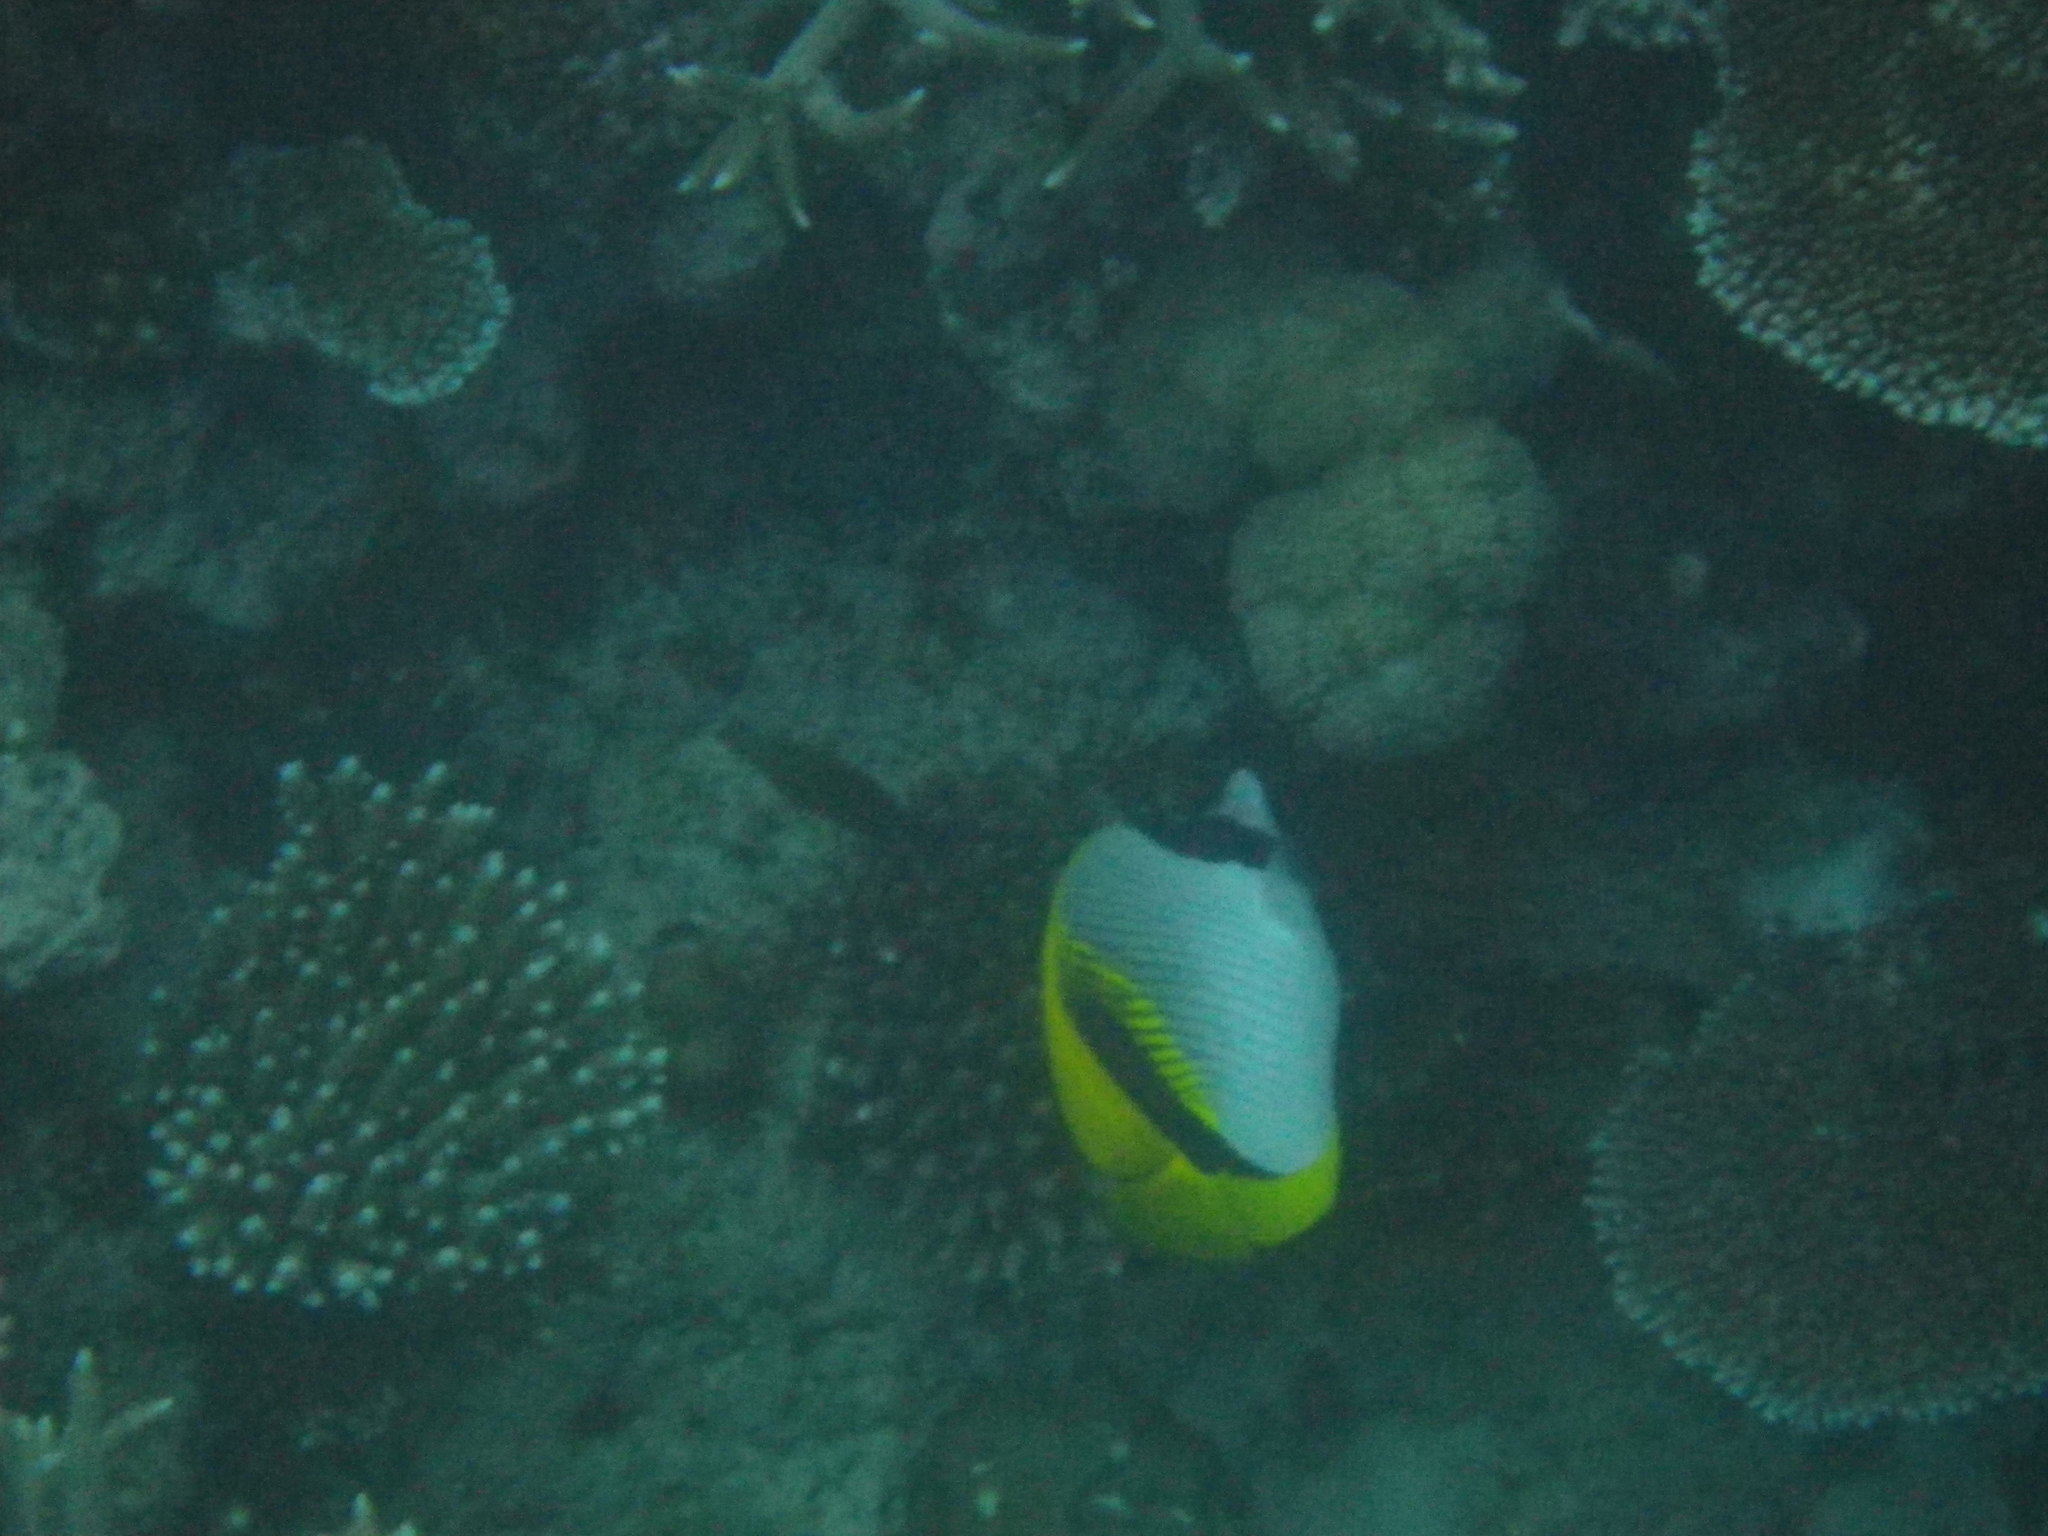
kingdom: Animalia
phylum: Chordata
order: Perciformes
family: Chaetodontidae
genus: Chaetodon
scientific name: Chaetodon lineolatus
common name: Lined butterflyfish
